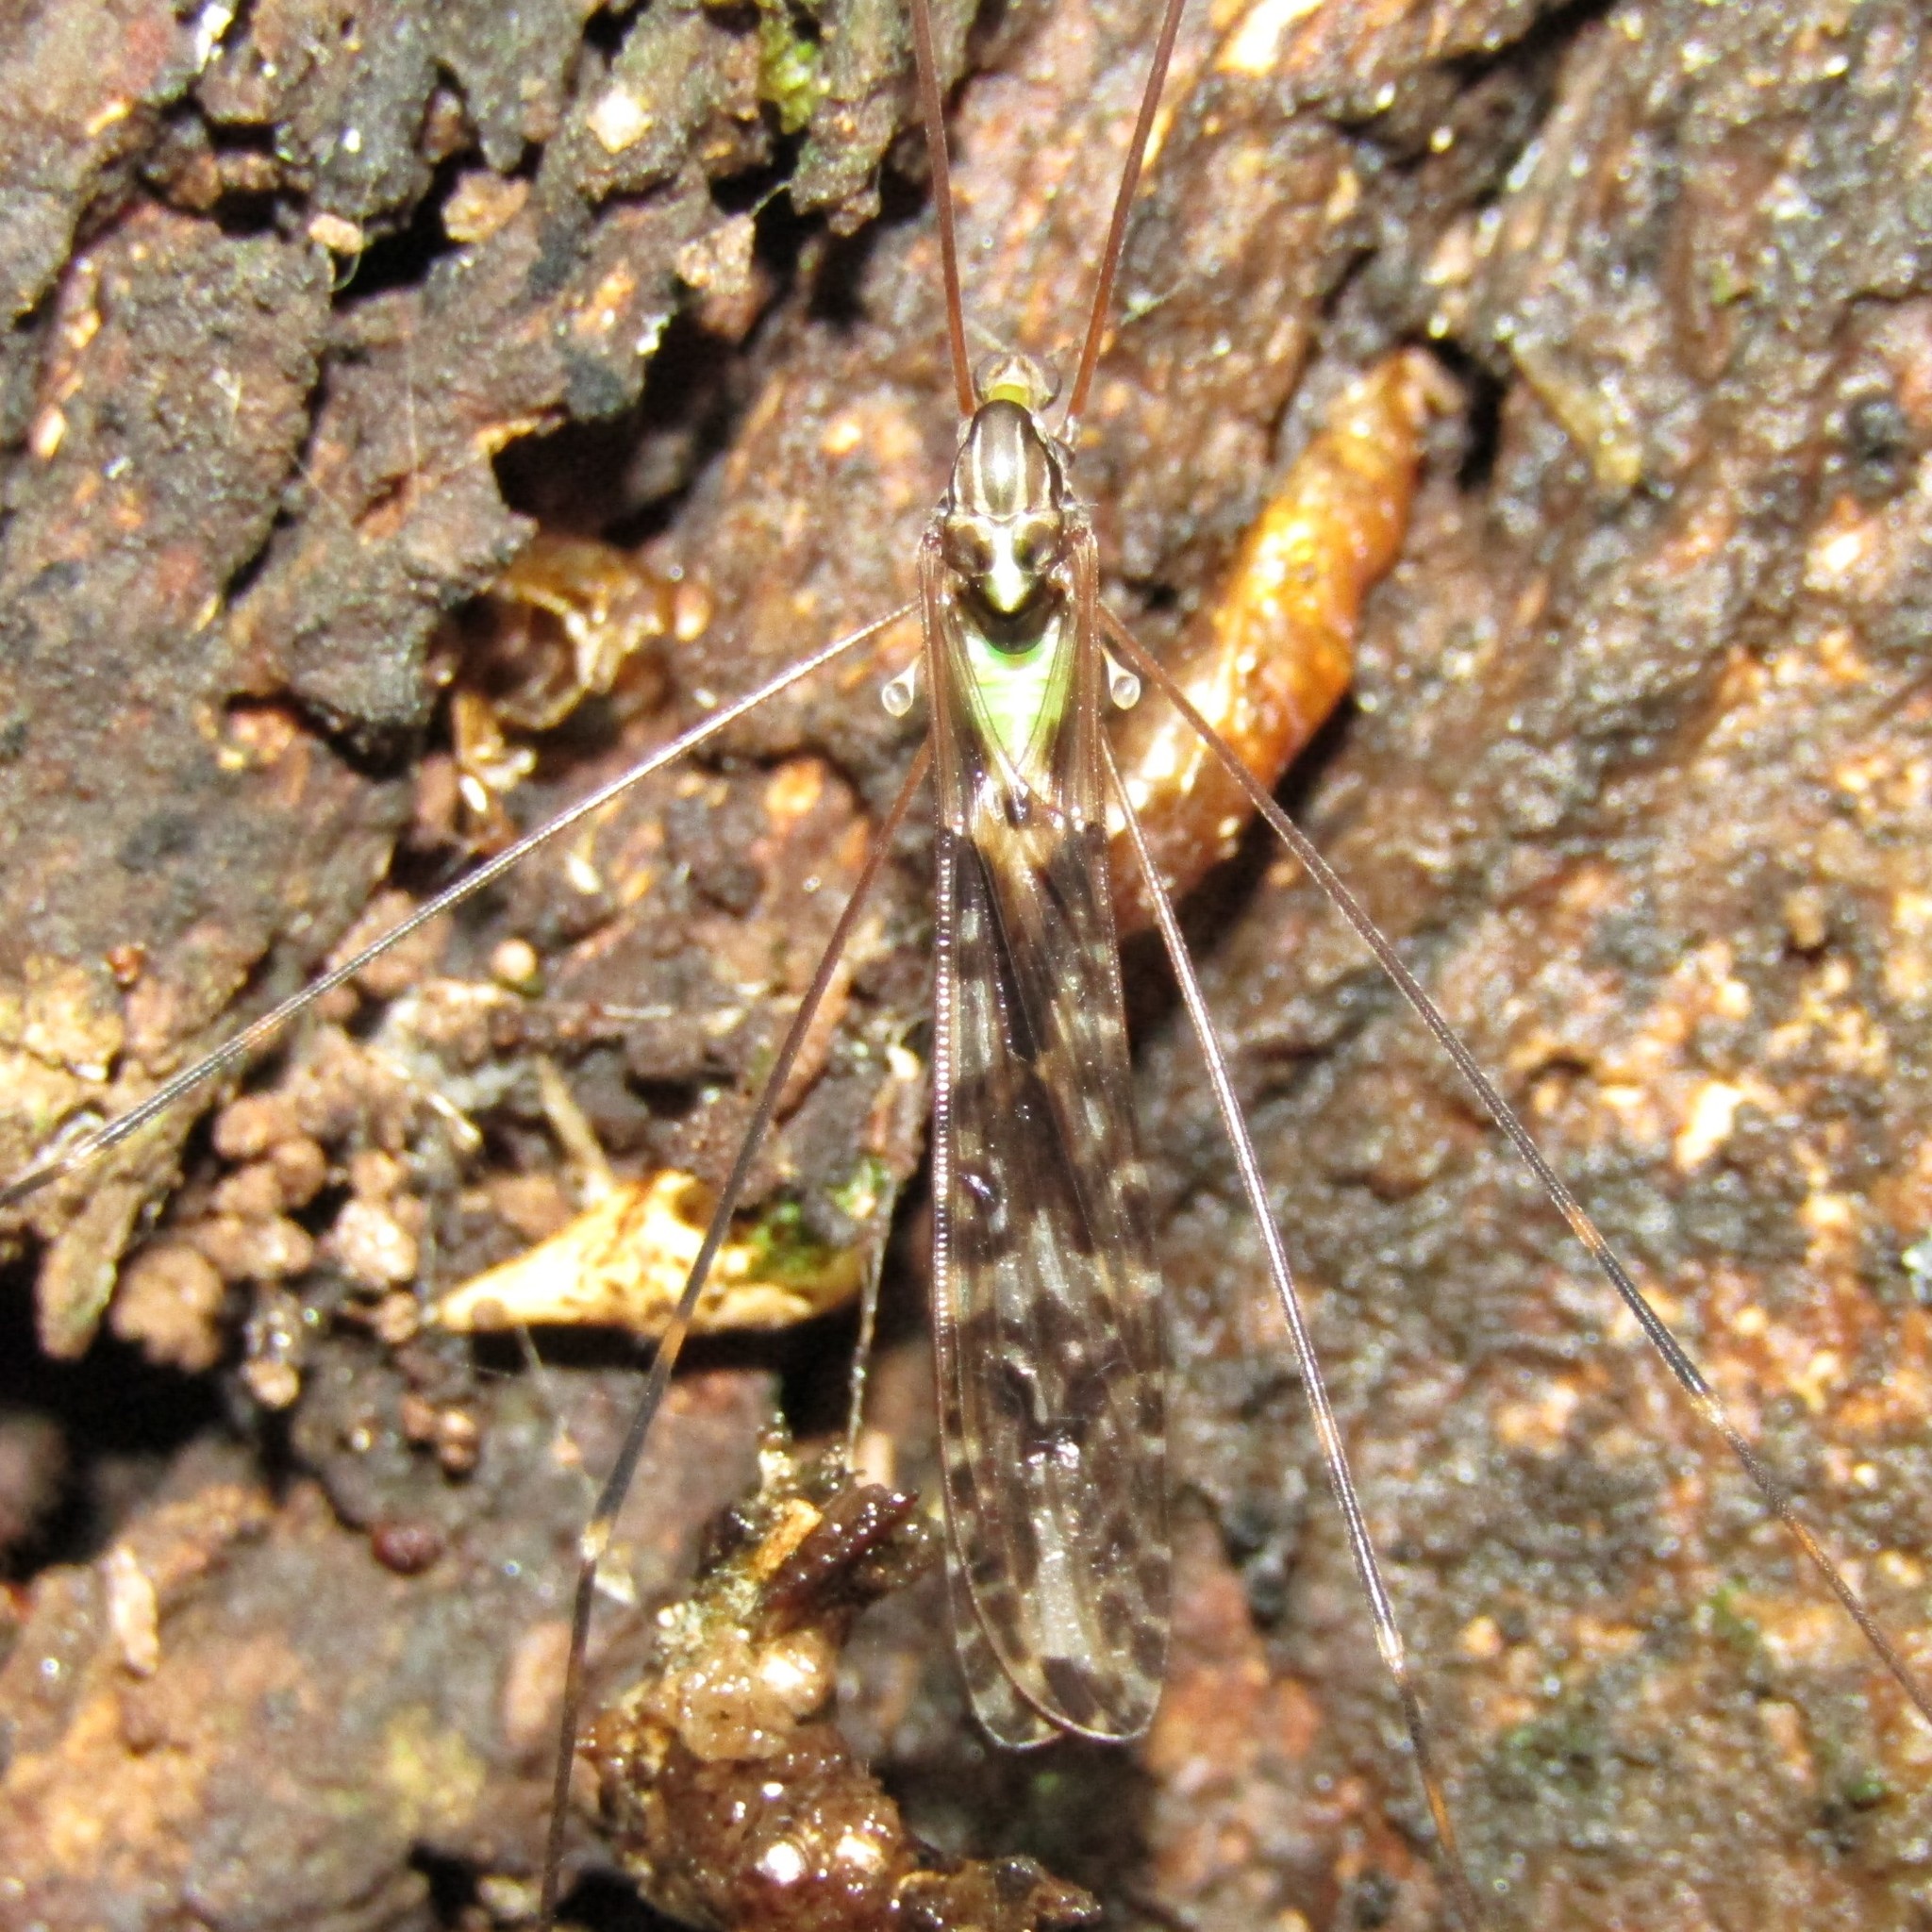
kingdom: Animalia
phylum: Arthropoda
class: Insecta
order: Diptera
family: Limoniidae
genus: Discobola
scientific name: Discobola dohrni
